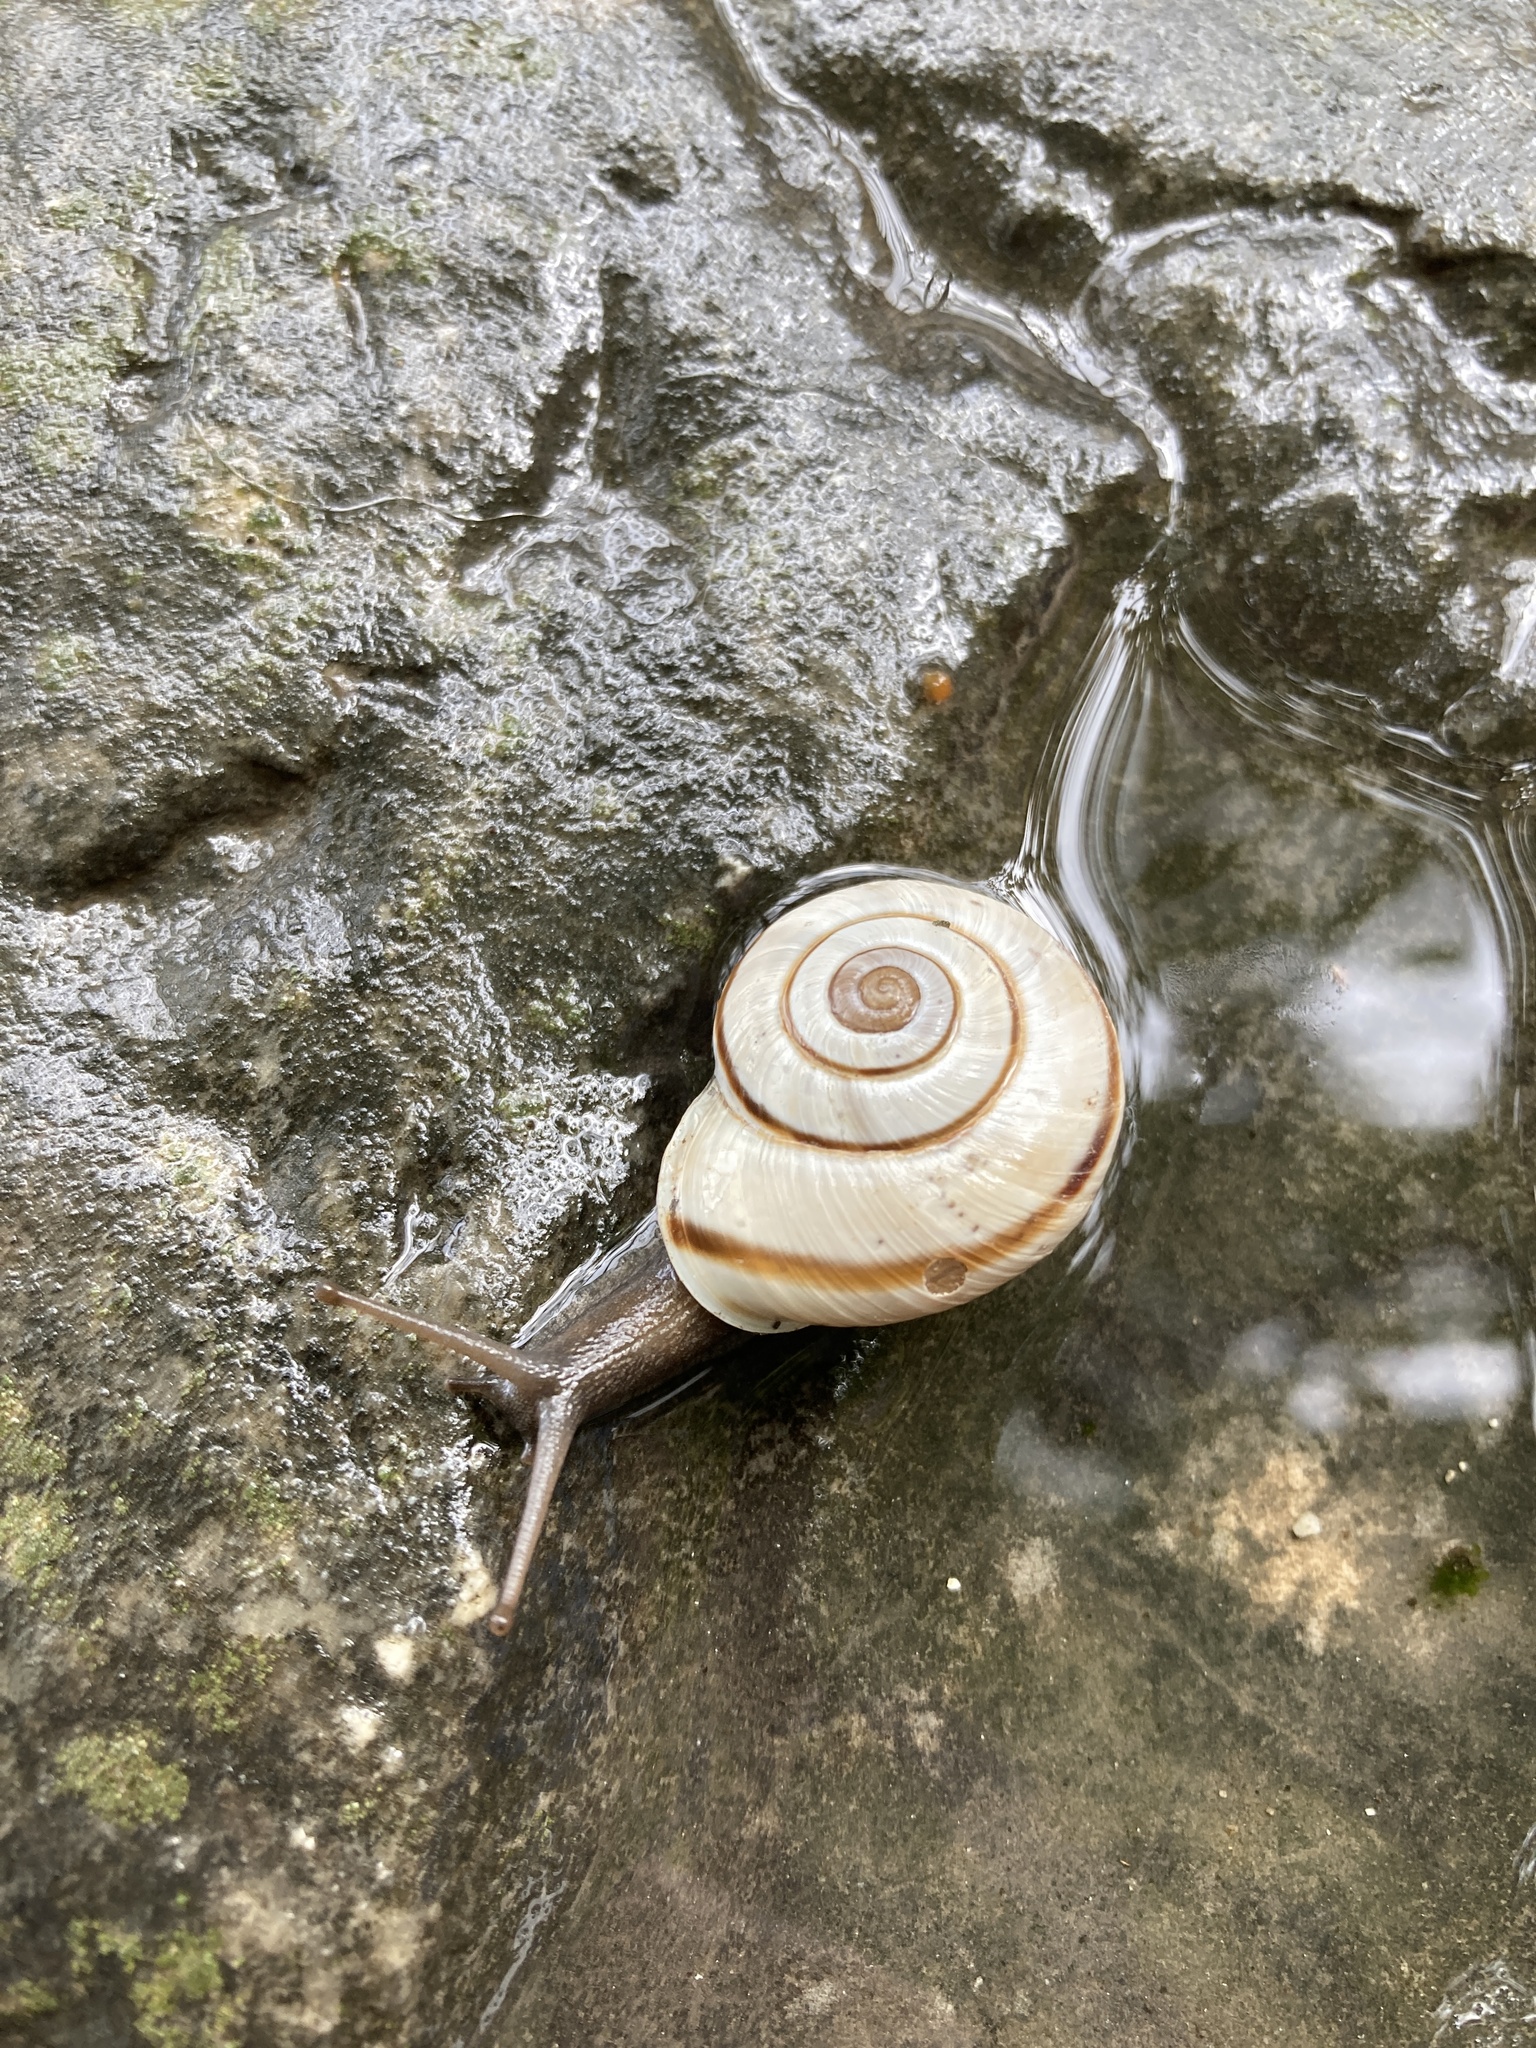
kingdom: Animalia
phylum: Mollusca
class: Gastropoda
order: Stylommatophora
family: Helicidae
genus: Chilostoma
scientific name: Chilostoma cingulatum
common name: Great rock snail
